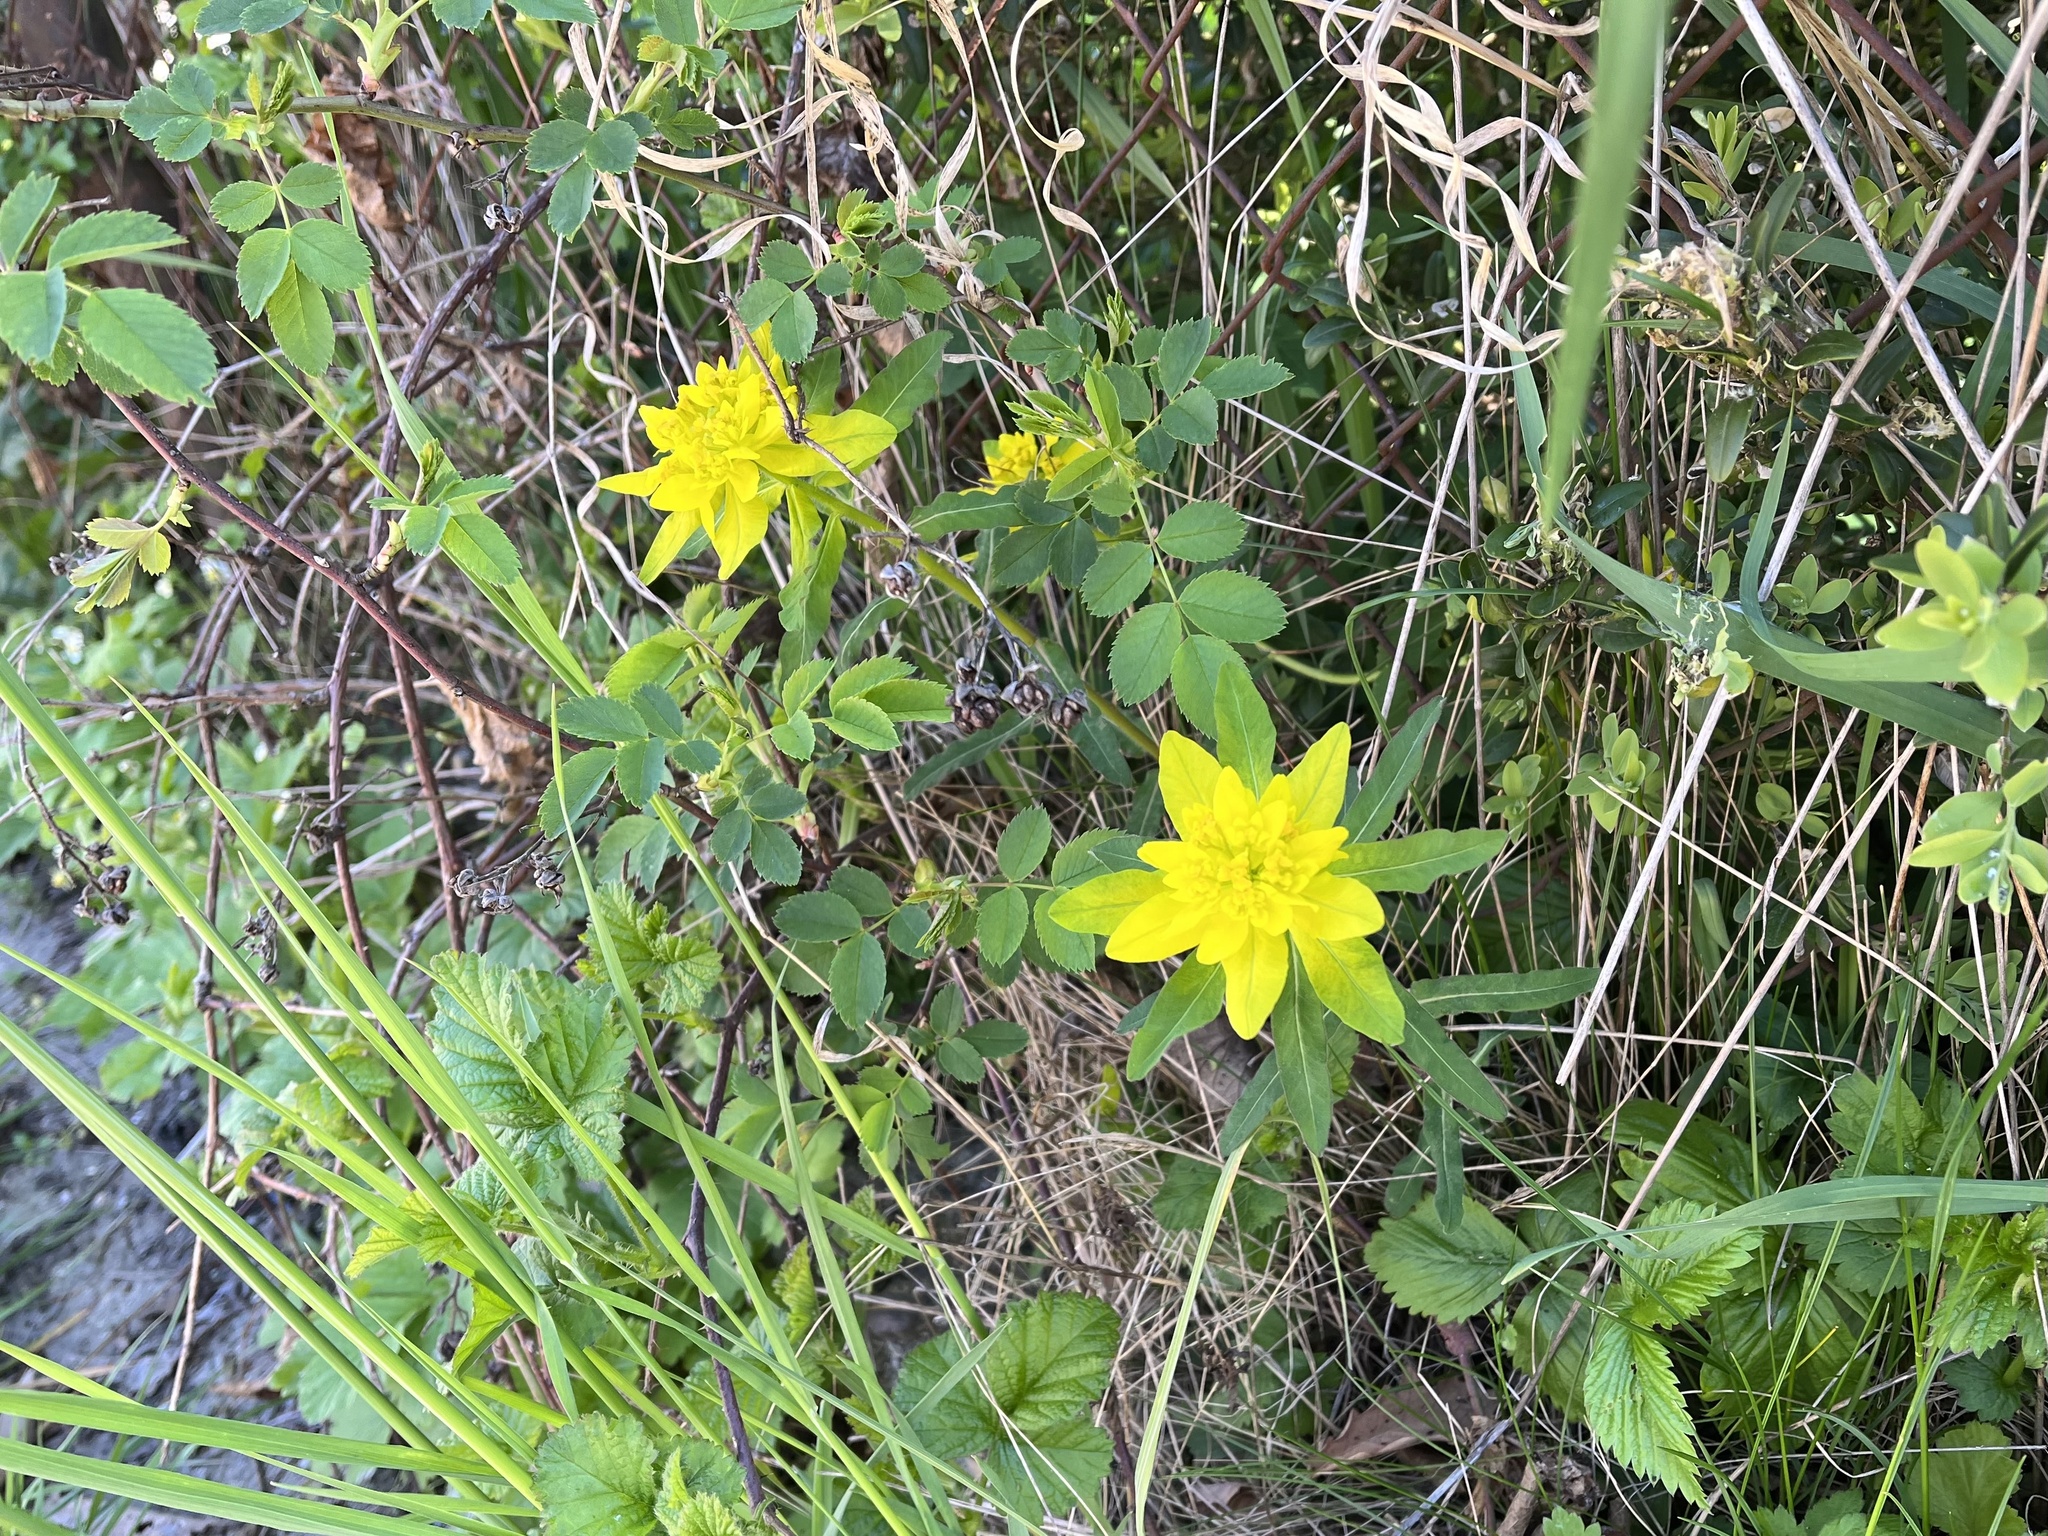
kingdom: Plantae
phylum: Tracheophyta
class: Magnoliopsida
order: Malpighiales
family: Euphorbiaceae
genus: Euphorbia
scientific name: Euphorbia epithymoides
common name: Cushion spurge
